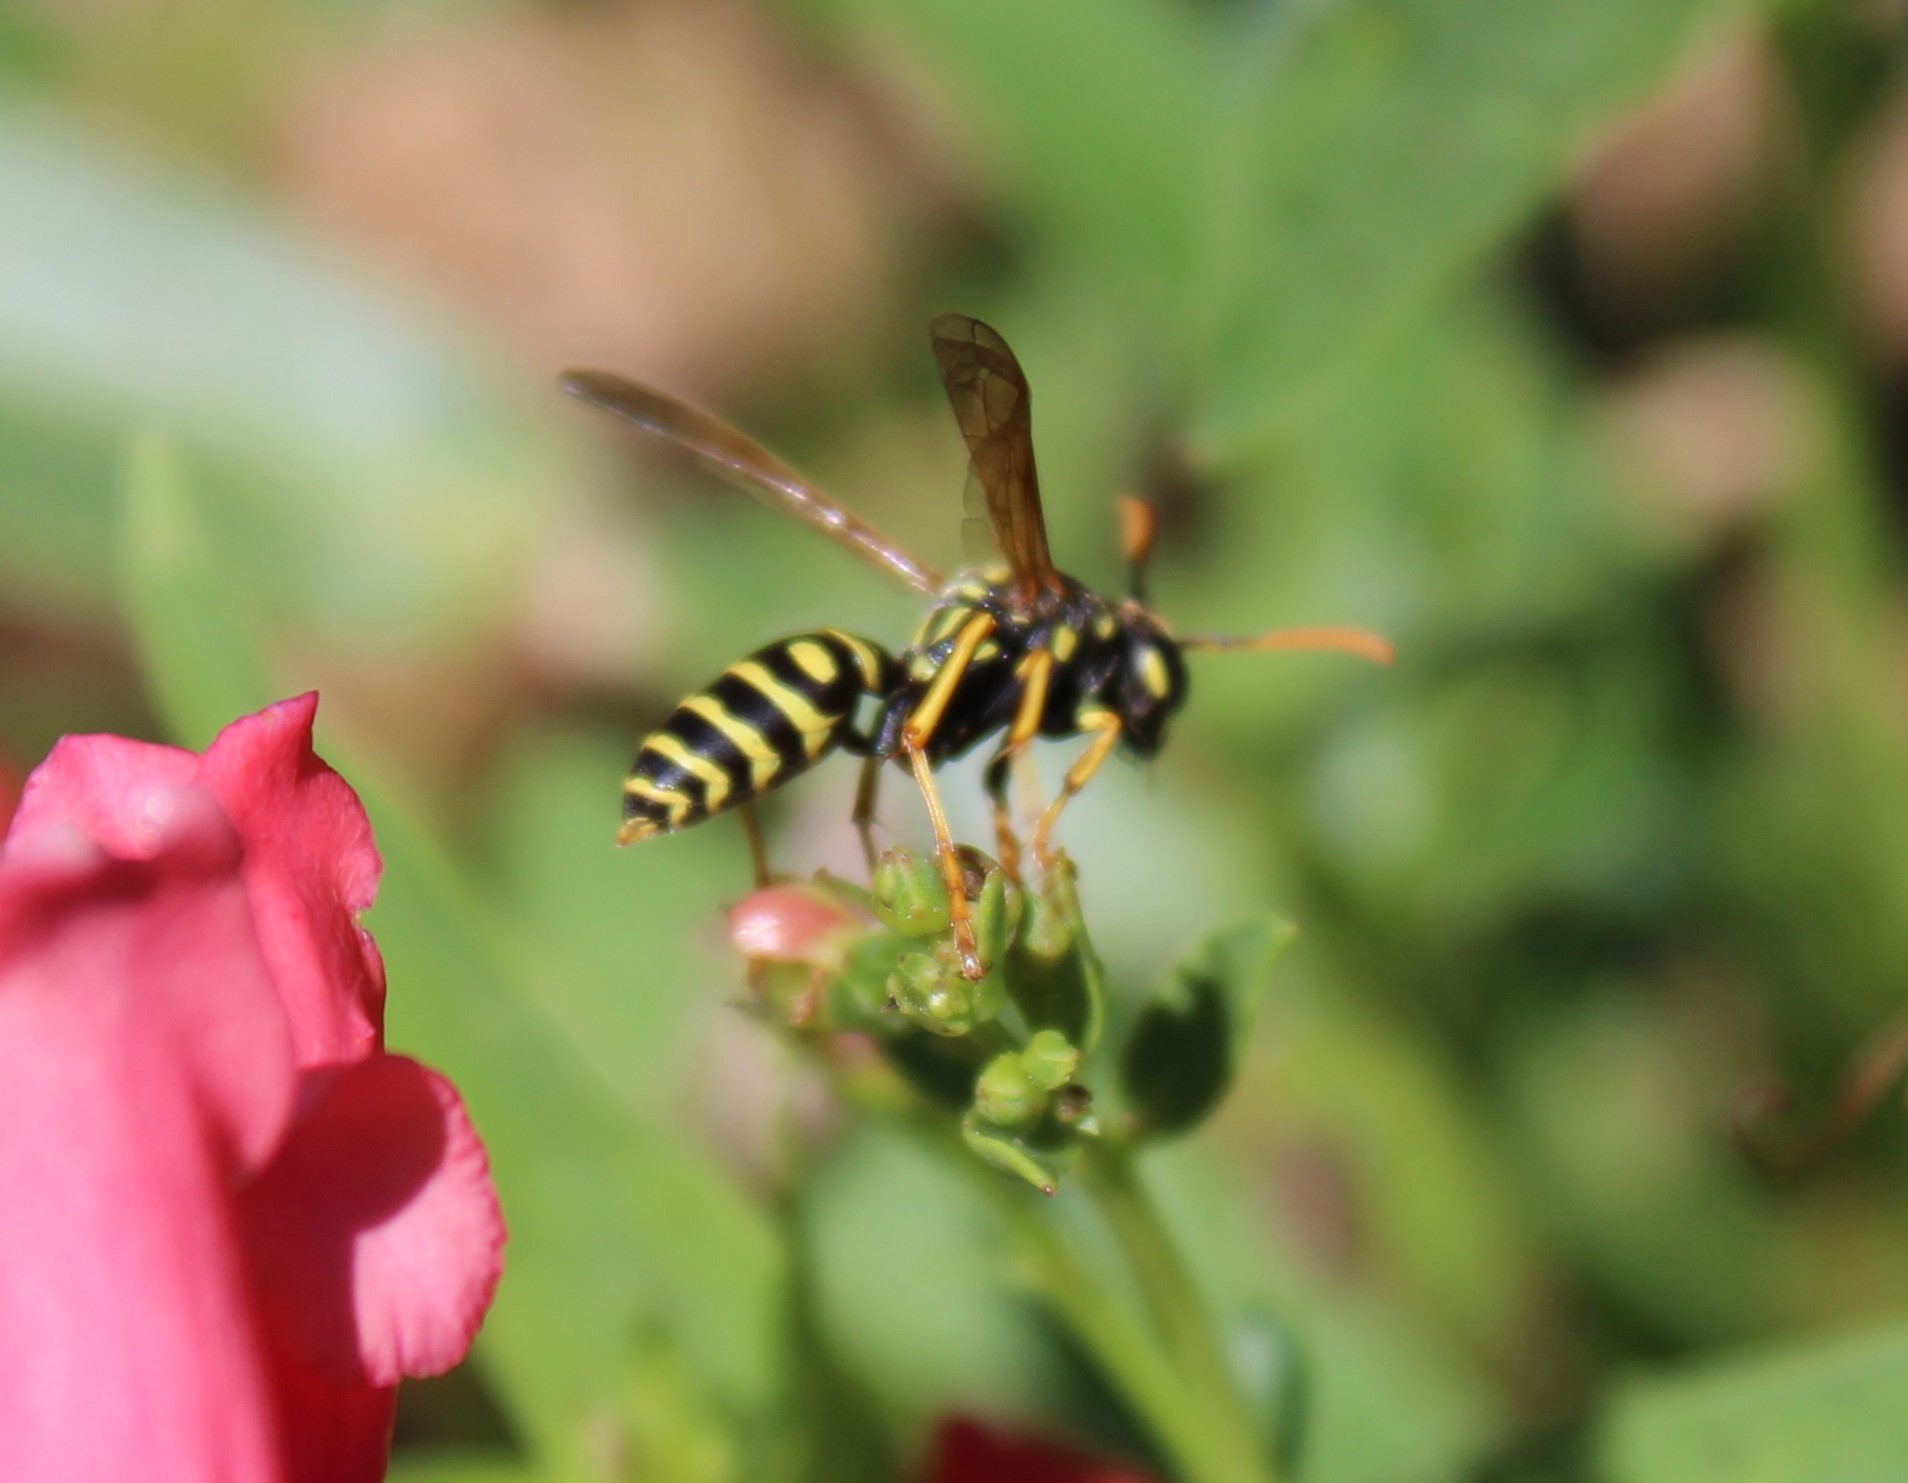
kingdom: Animalia
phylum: Arthropoda
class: Insecta
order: Hymenoptera
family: Eumenidae
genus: Polistes
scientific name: Polistes dominula
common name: Paper wasp
